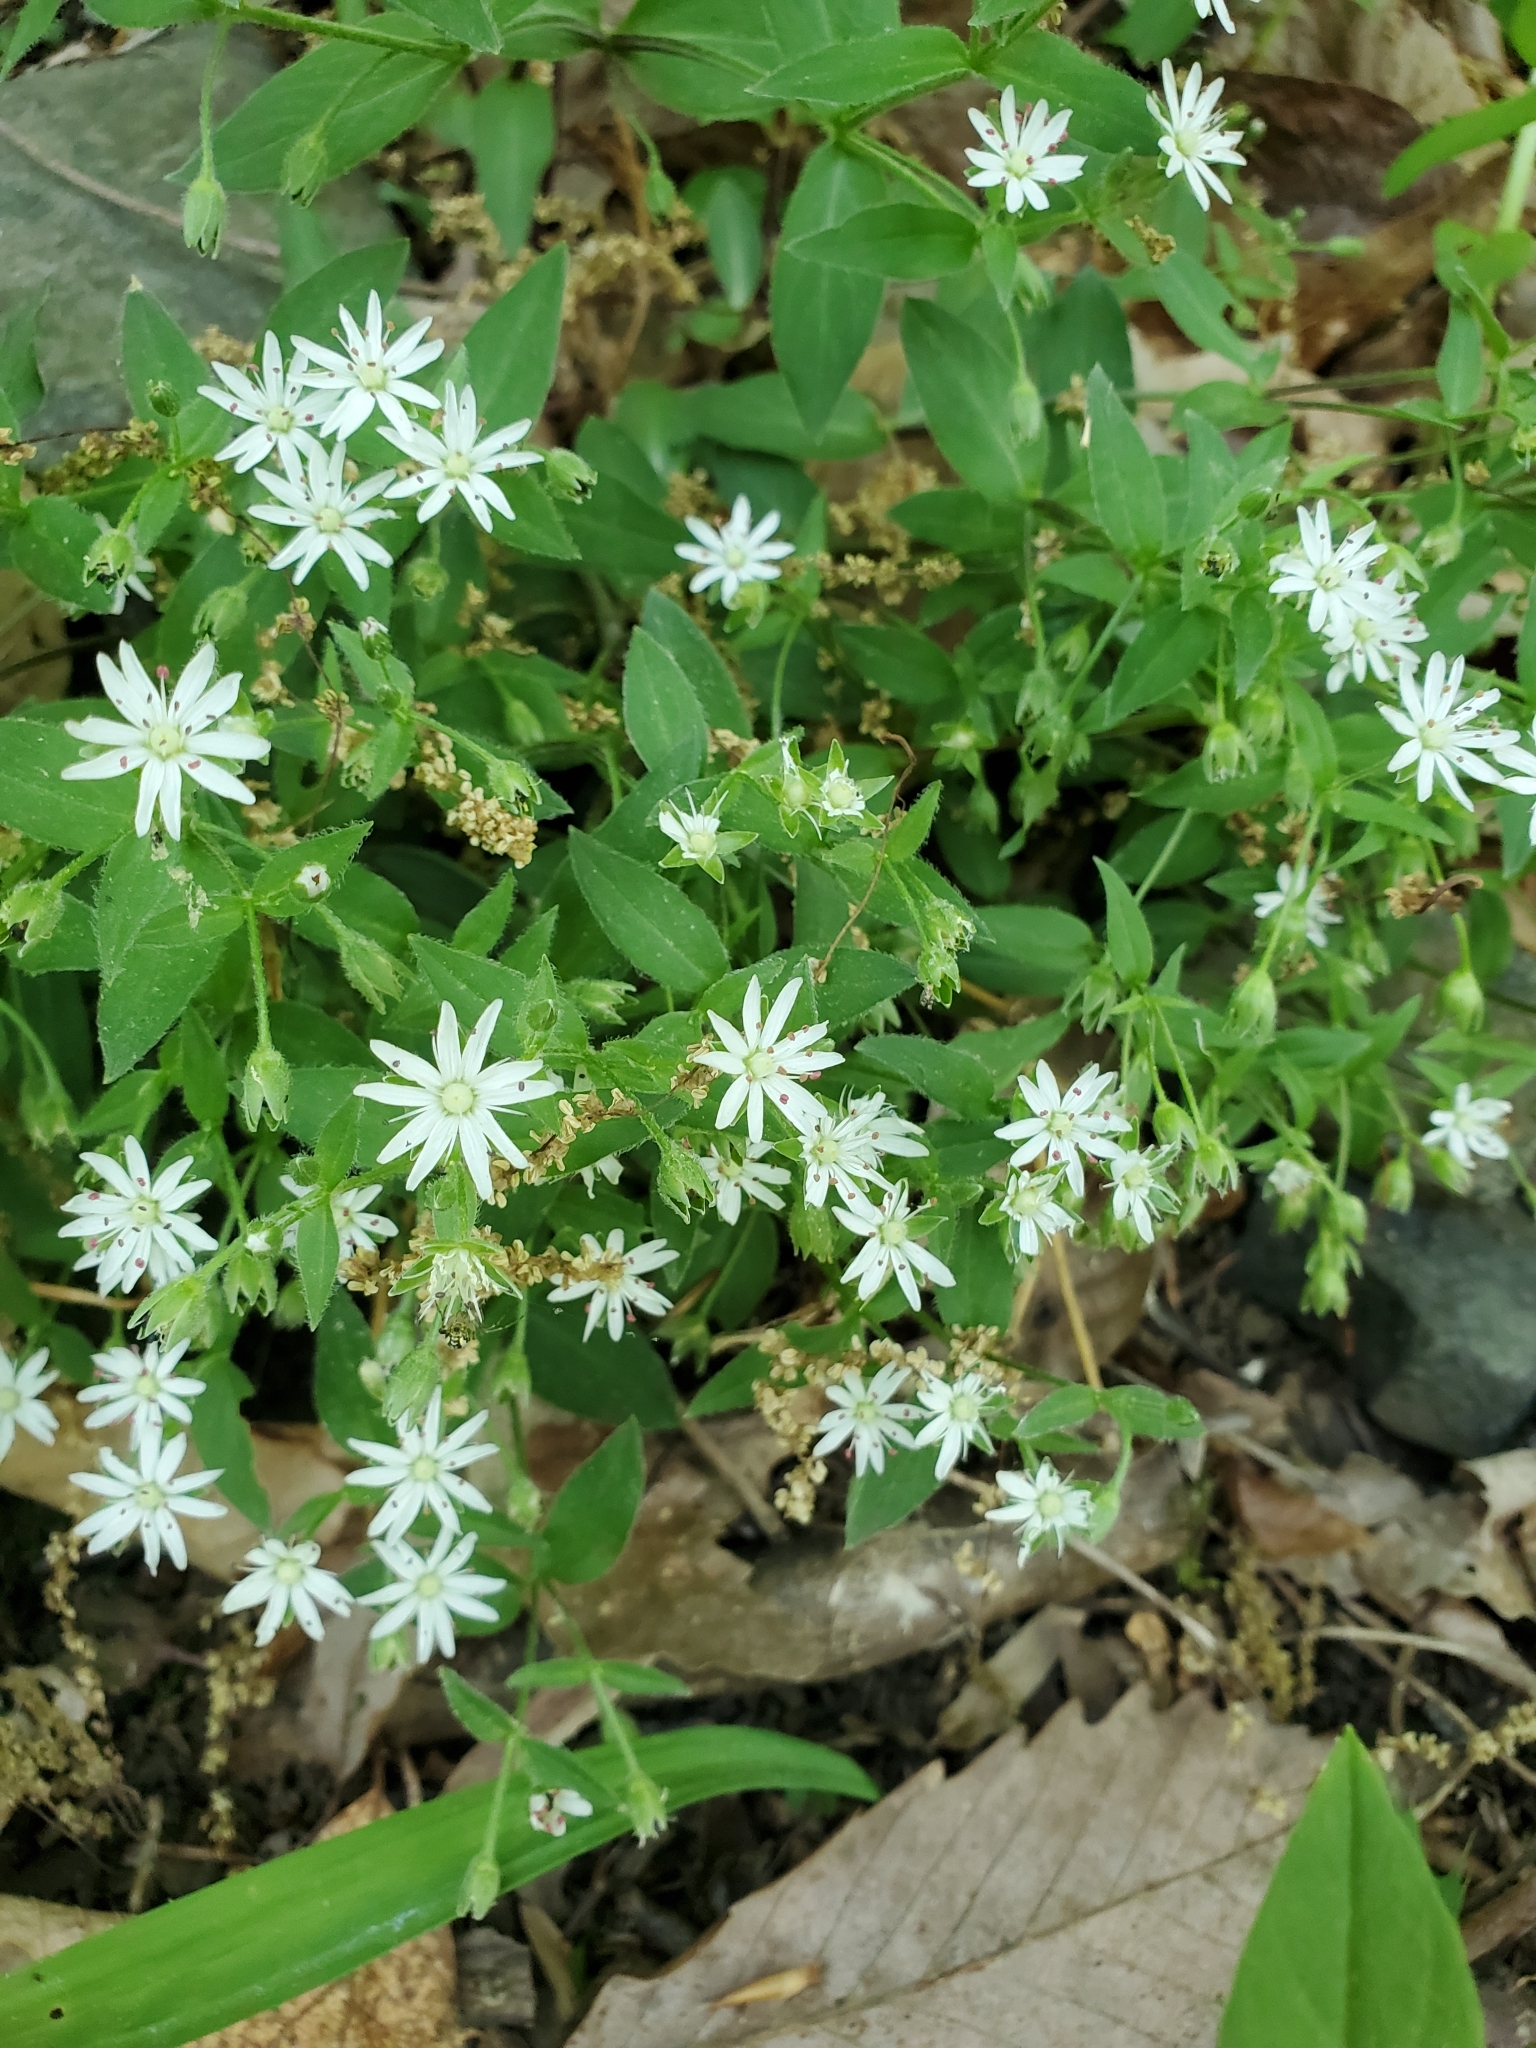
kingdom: Plantae
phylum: Tracheophyta
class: Magnoliopsida
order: Caryophyllales
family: Caryophyllaceae
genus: Stellaria
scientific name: Stellaria pubera
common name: Star chickweed
